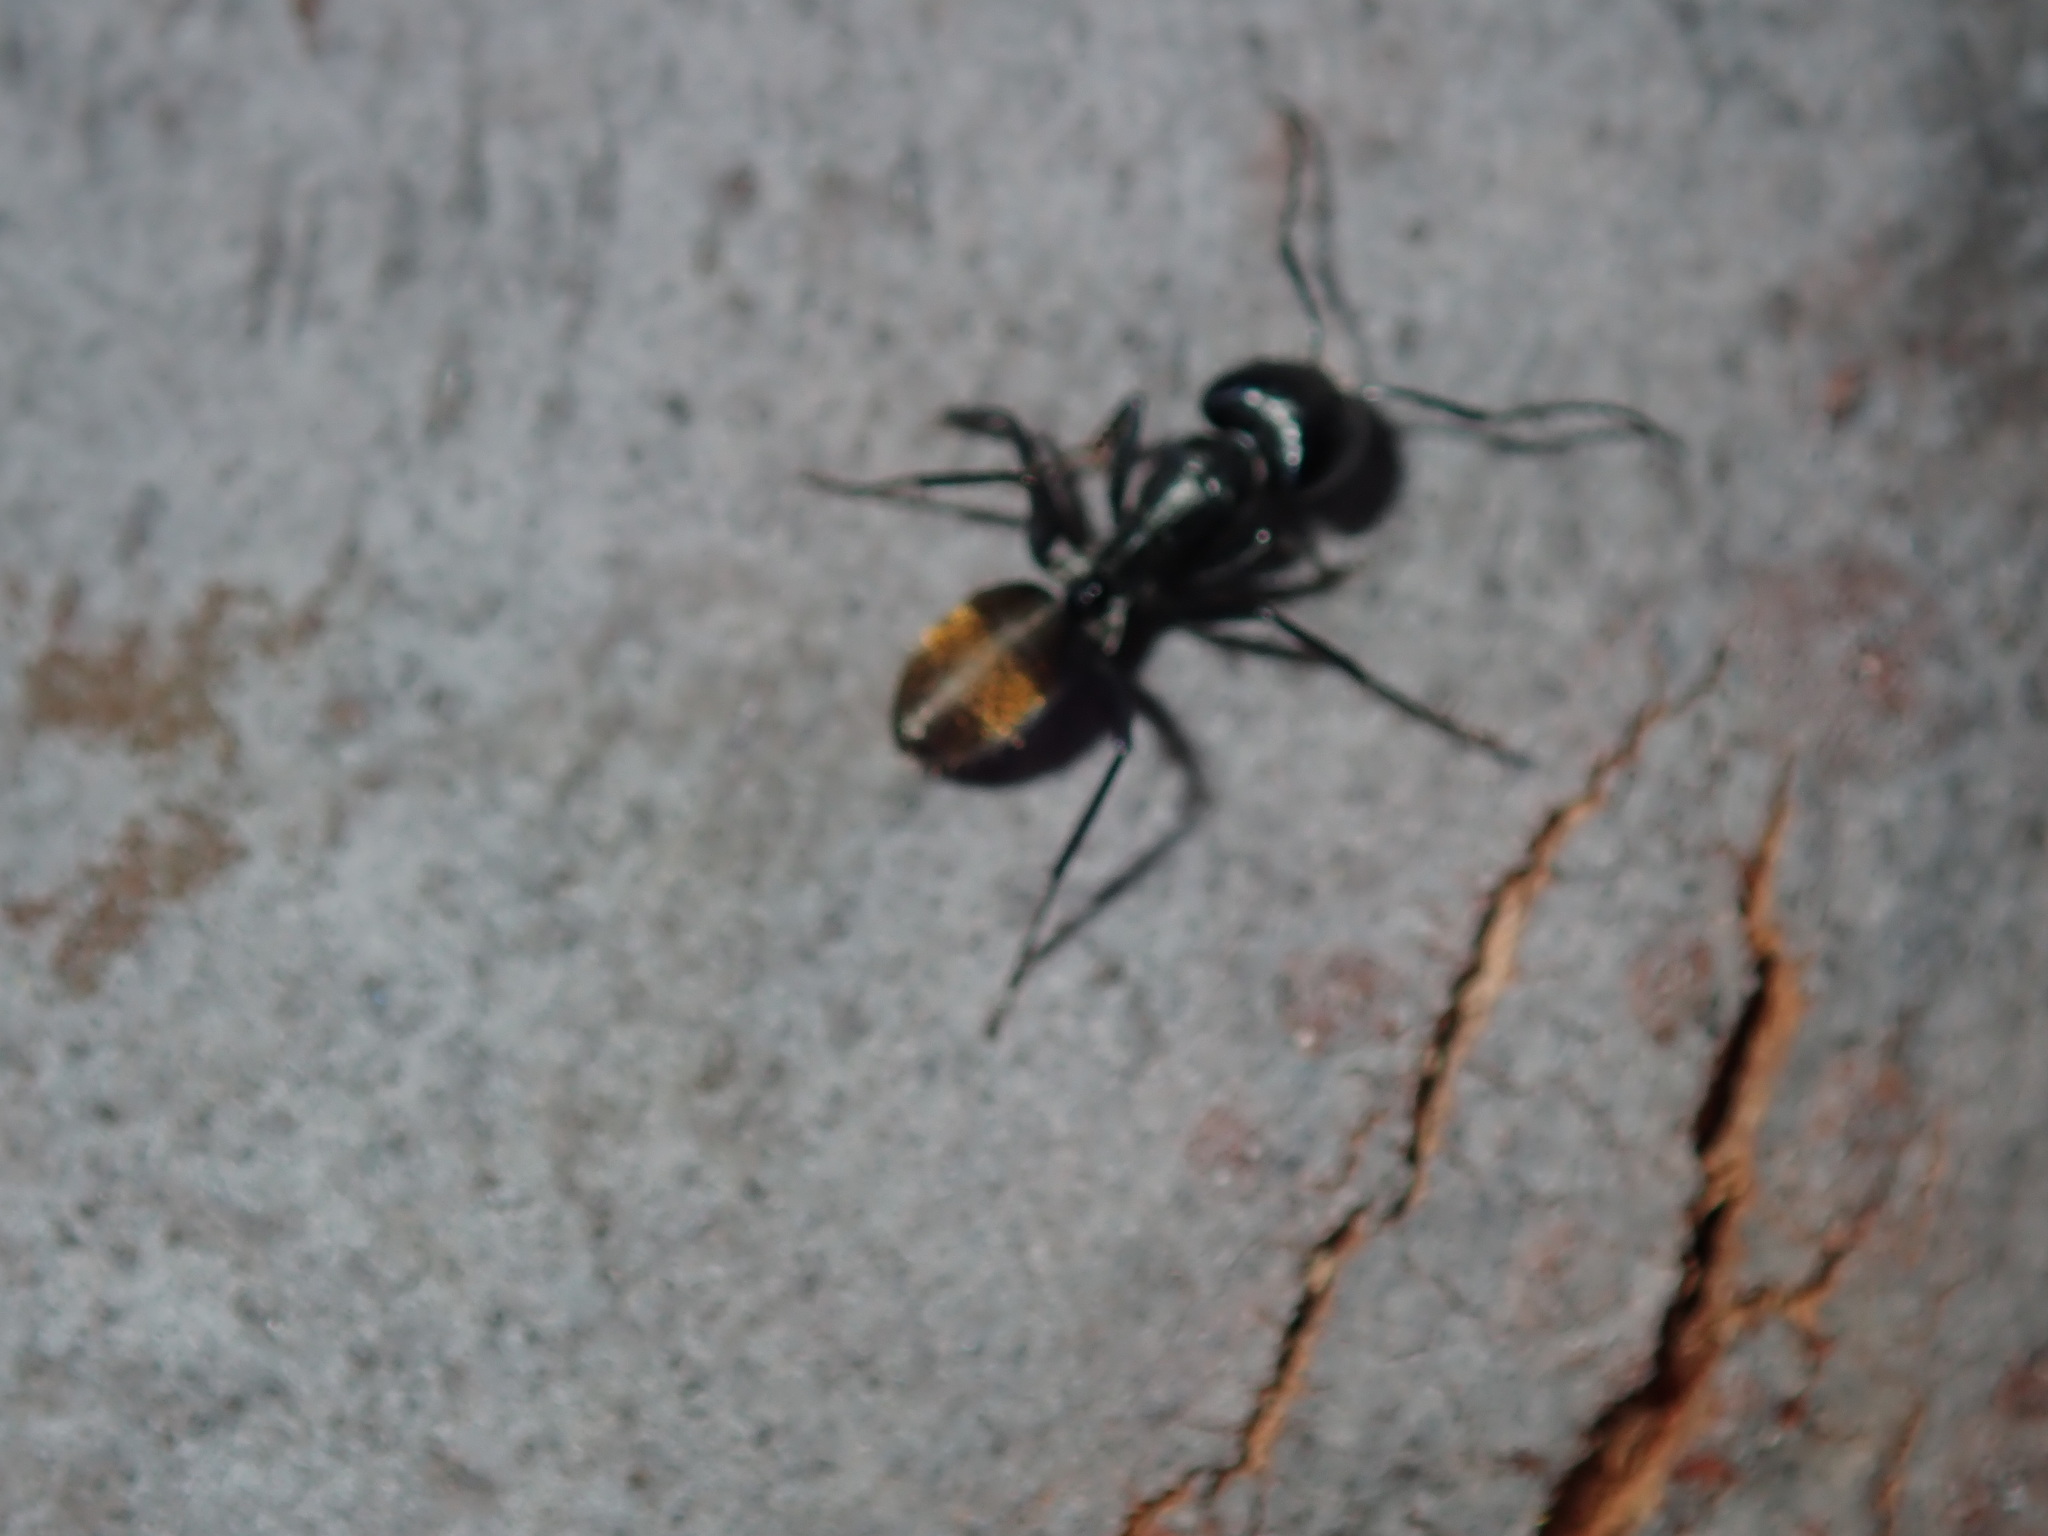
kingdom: Animalia
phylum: Arthropoda
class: Insecta
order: Hymenoptera
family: Formicidae
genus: Camponotus
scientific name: Camponotus aeneopilosus
